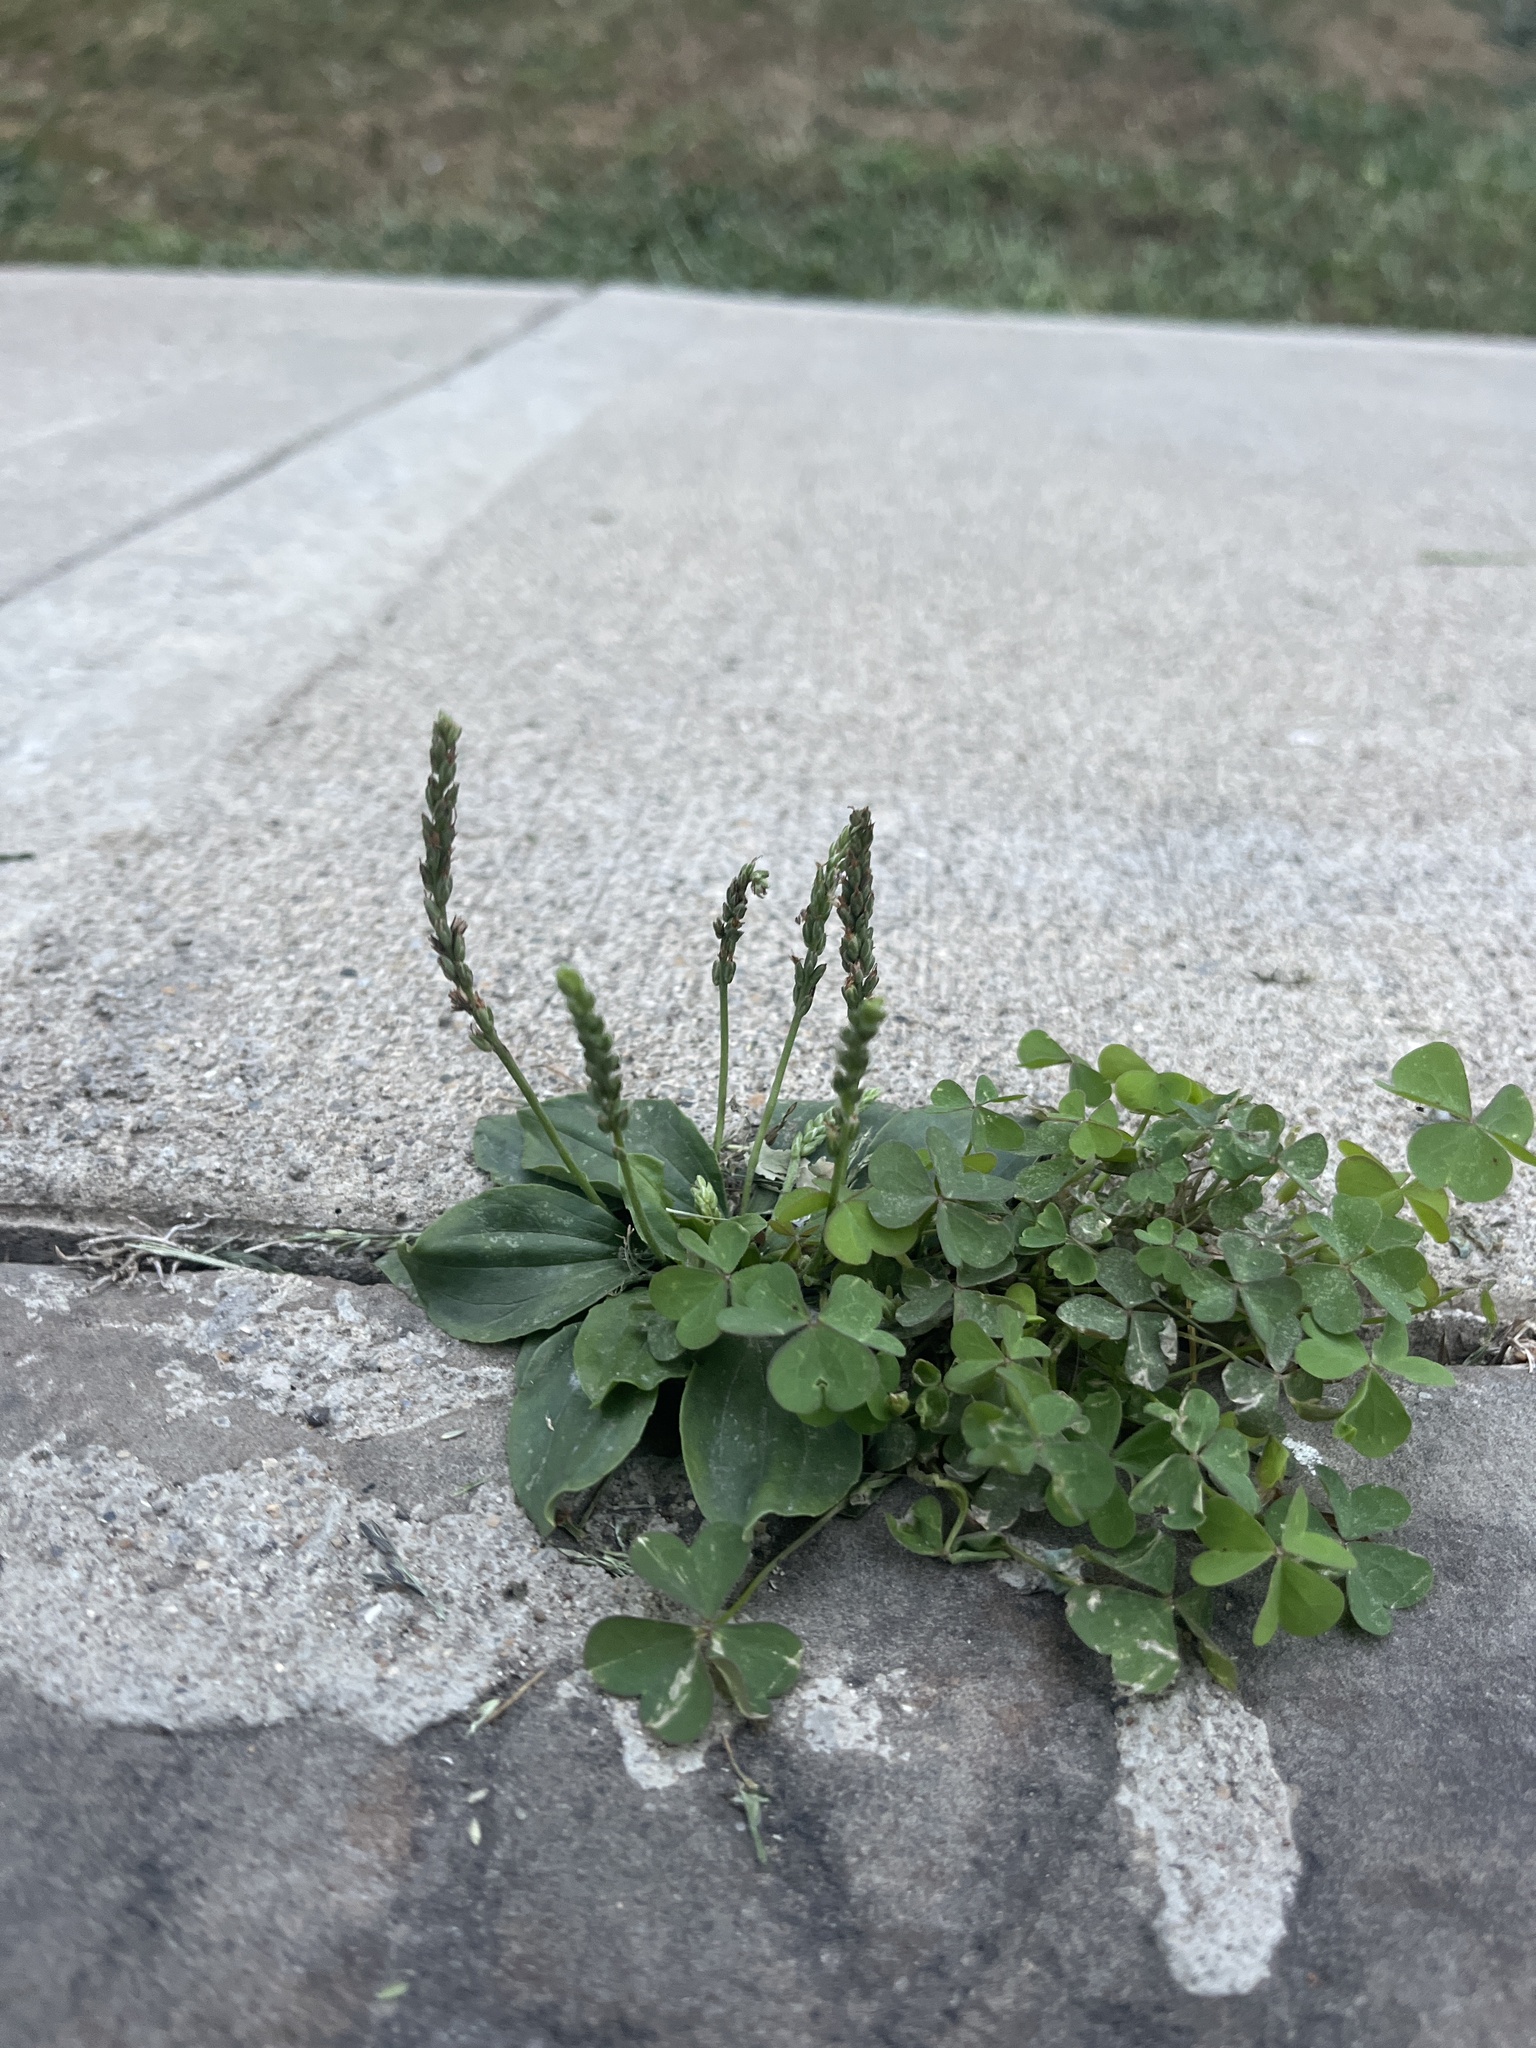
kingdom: Plantae
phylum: Tracheophyta
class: Magnoliopsida
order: Lamiales
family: Plantaginaceae
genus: Plantago
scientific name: Plantago major
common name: Common plantain
